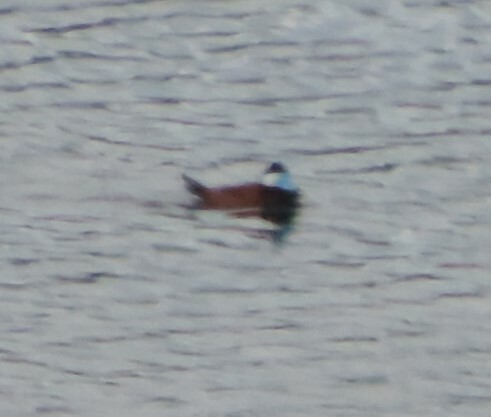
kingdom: Animalia
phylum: Chordata
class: Aves
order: Anseriformes
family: Anatidae
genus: Oxyura
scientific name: Oxyura jamaicensis
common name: Ruddy duck
